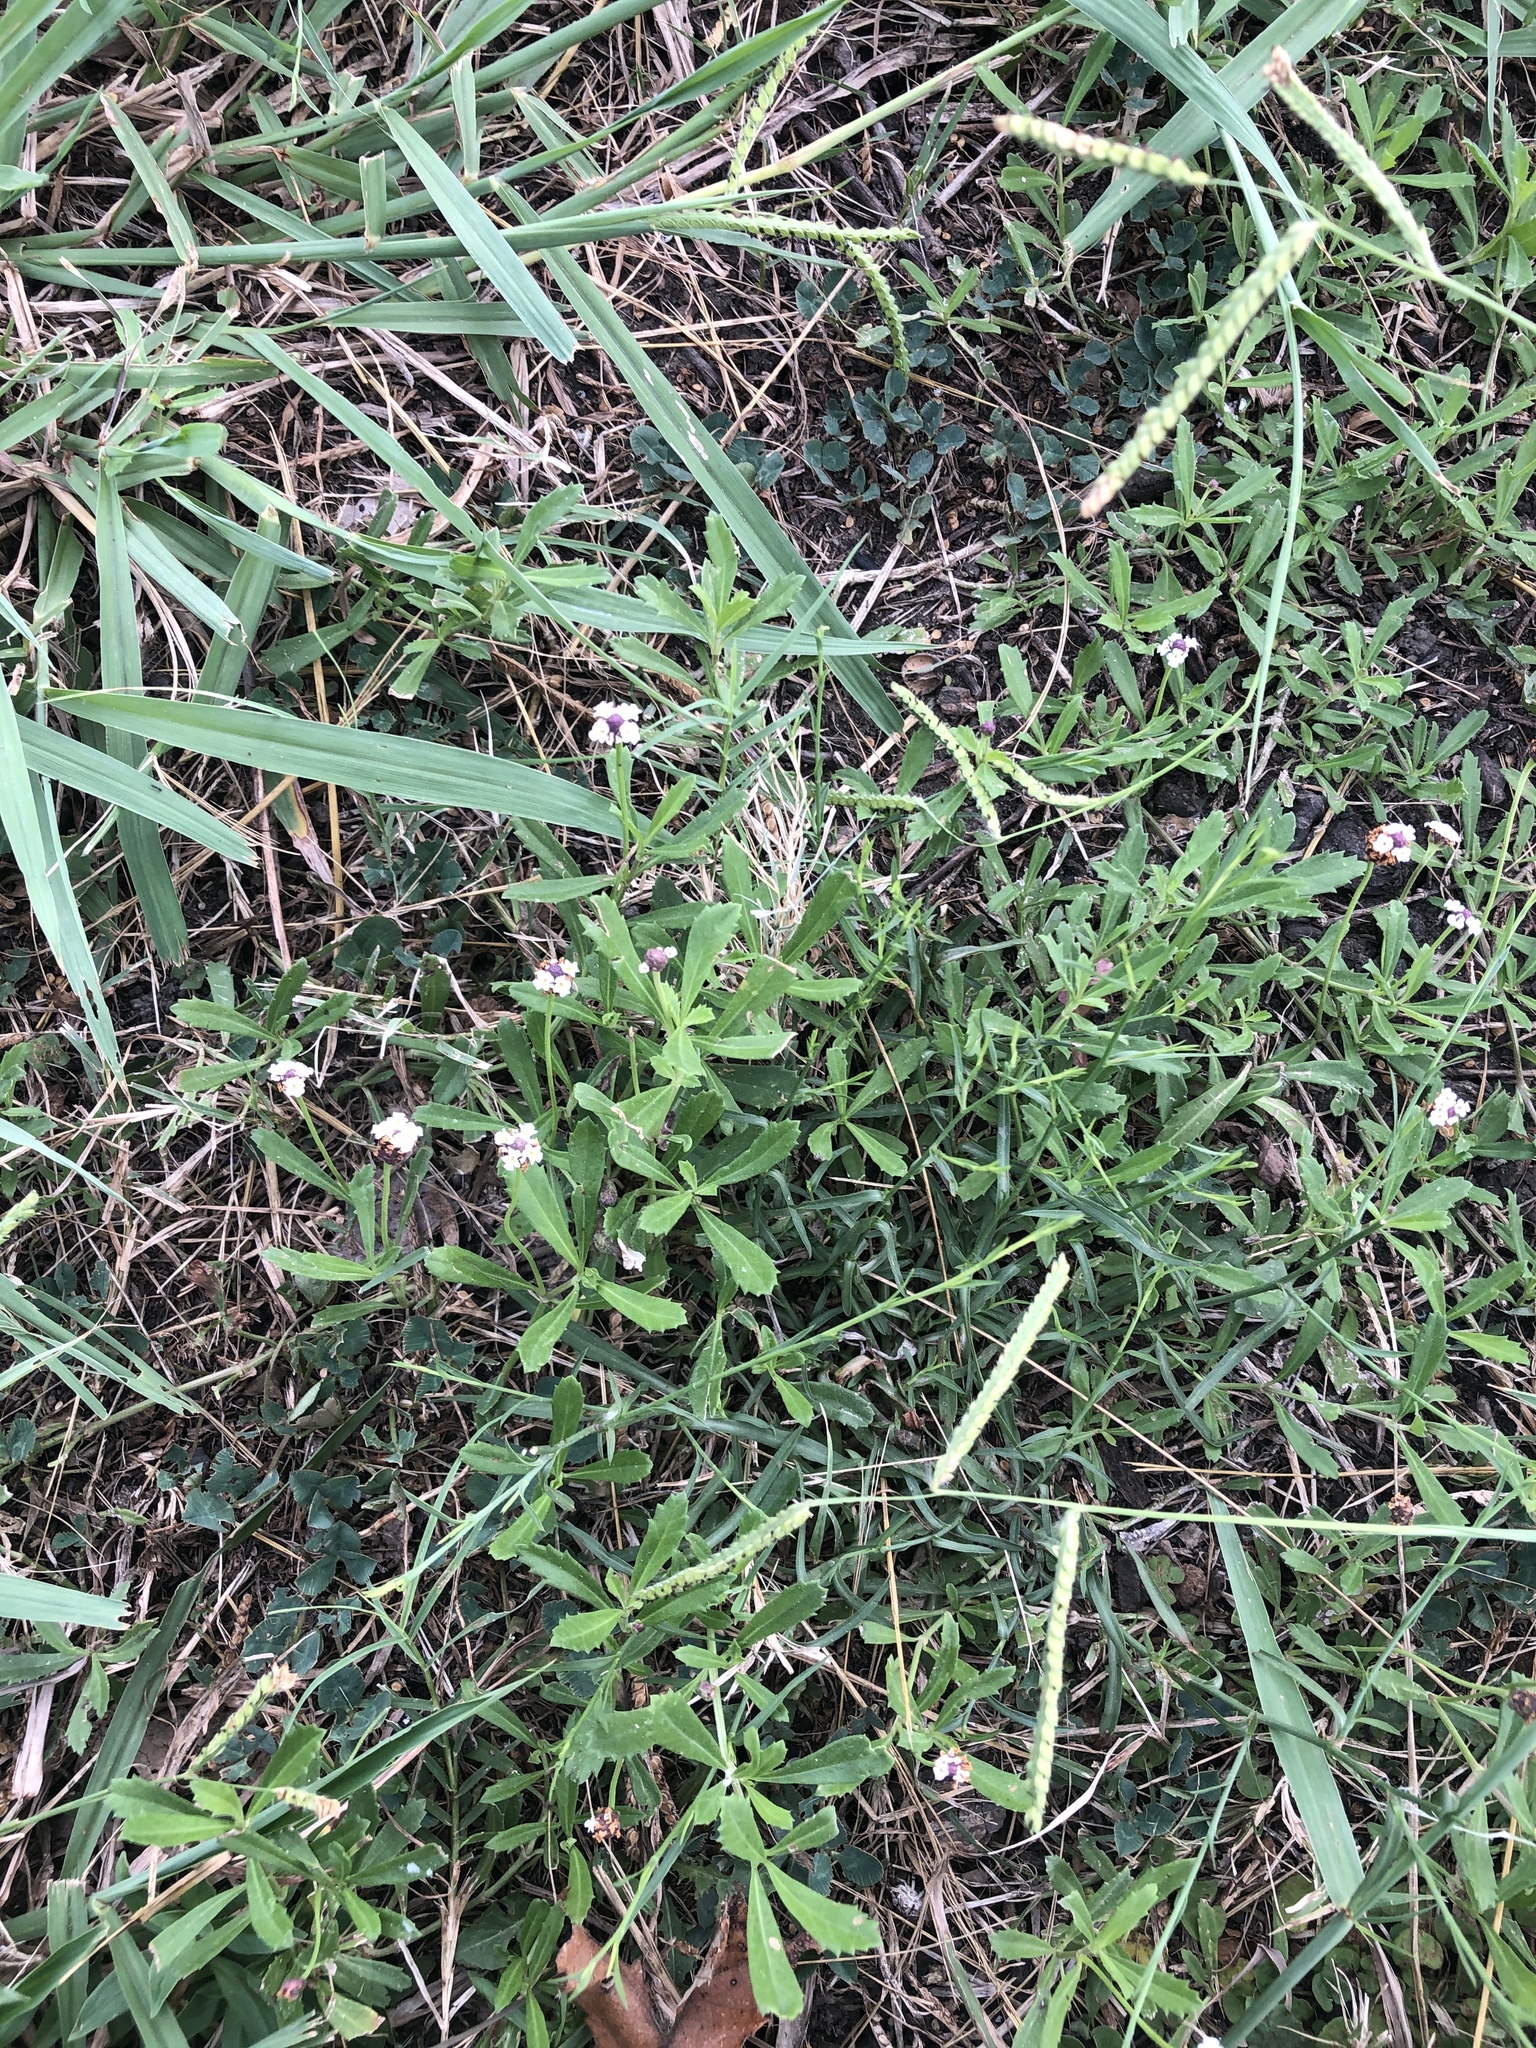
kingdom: Plantae
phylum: Tracheophyta
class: Magnoliopsida
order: Lamiales
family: Verbenaceae
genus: Phyla
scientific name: Phyla nodiflora
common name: Frogfruit
